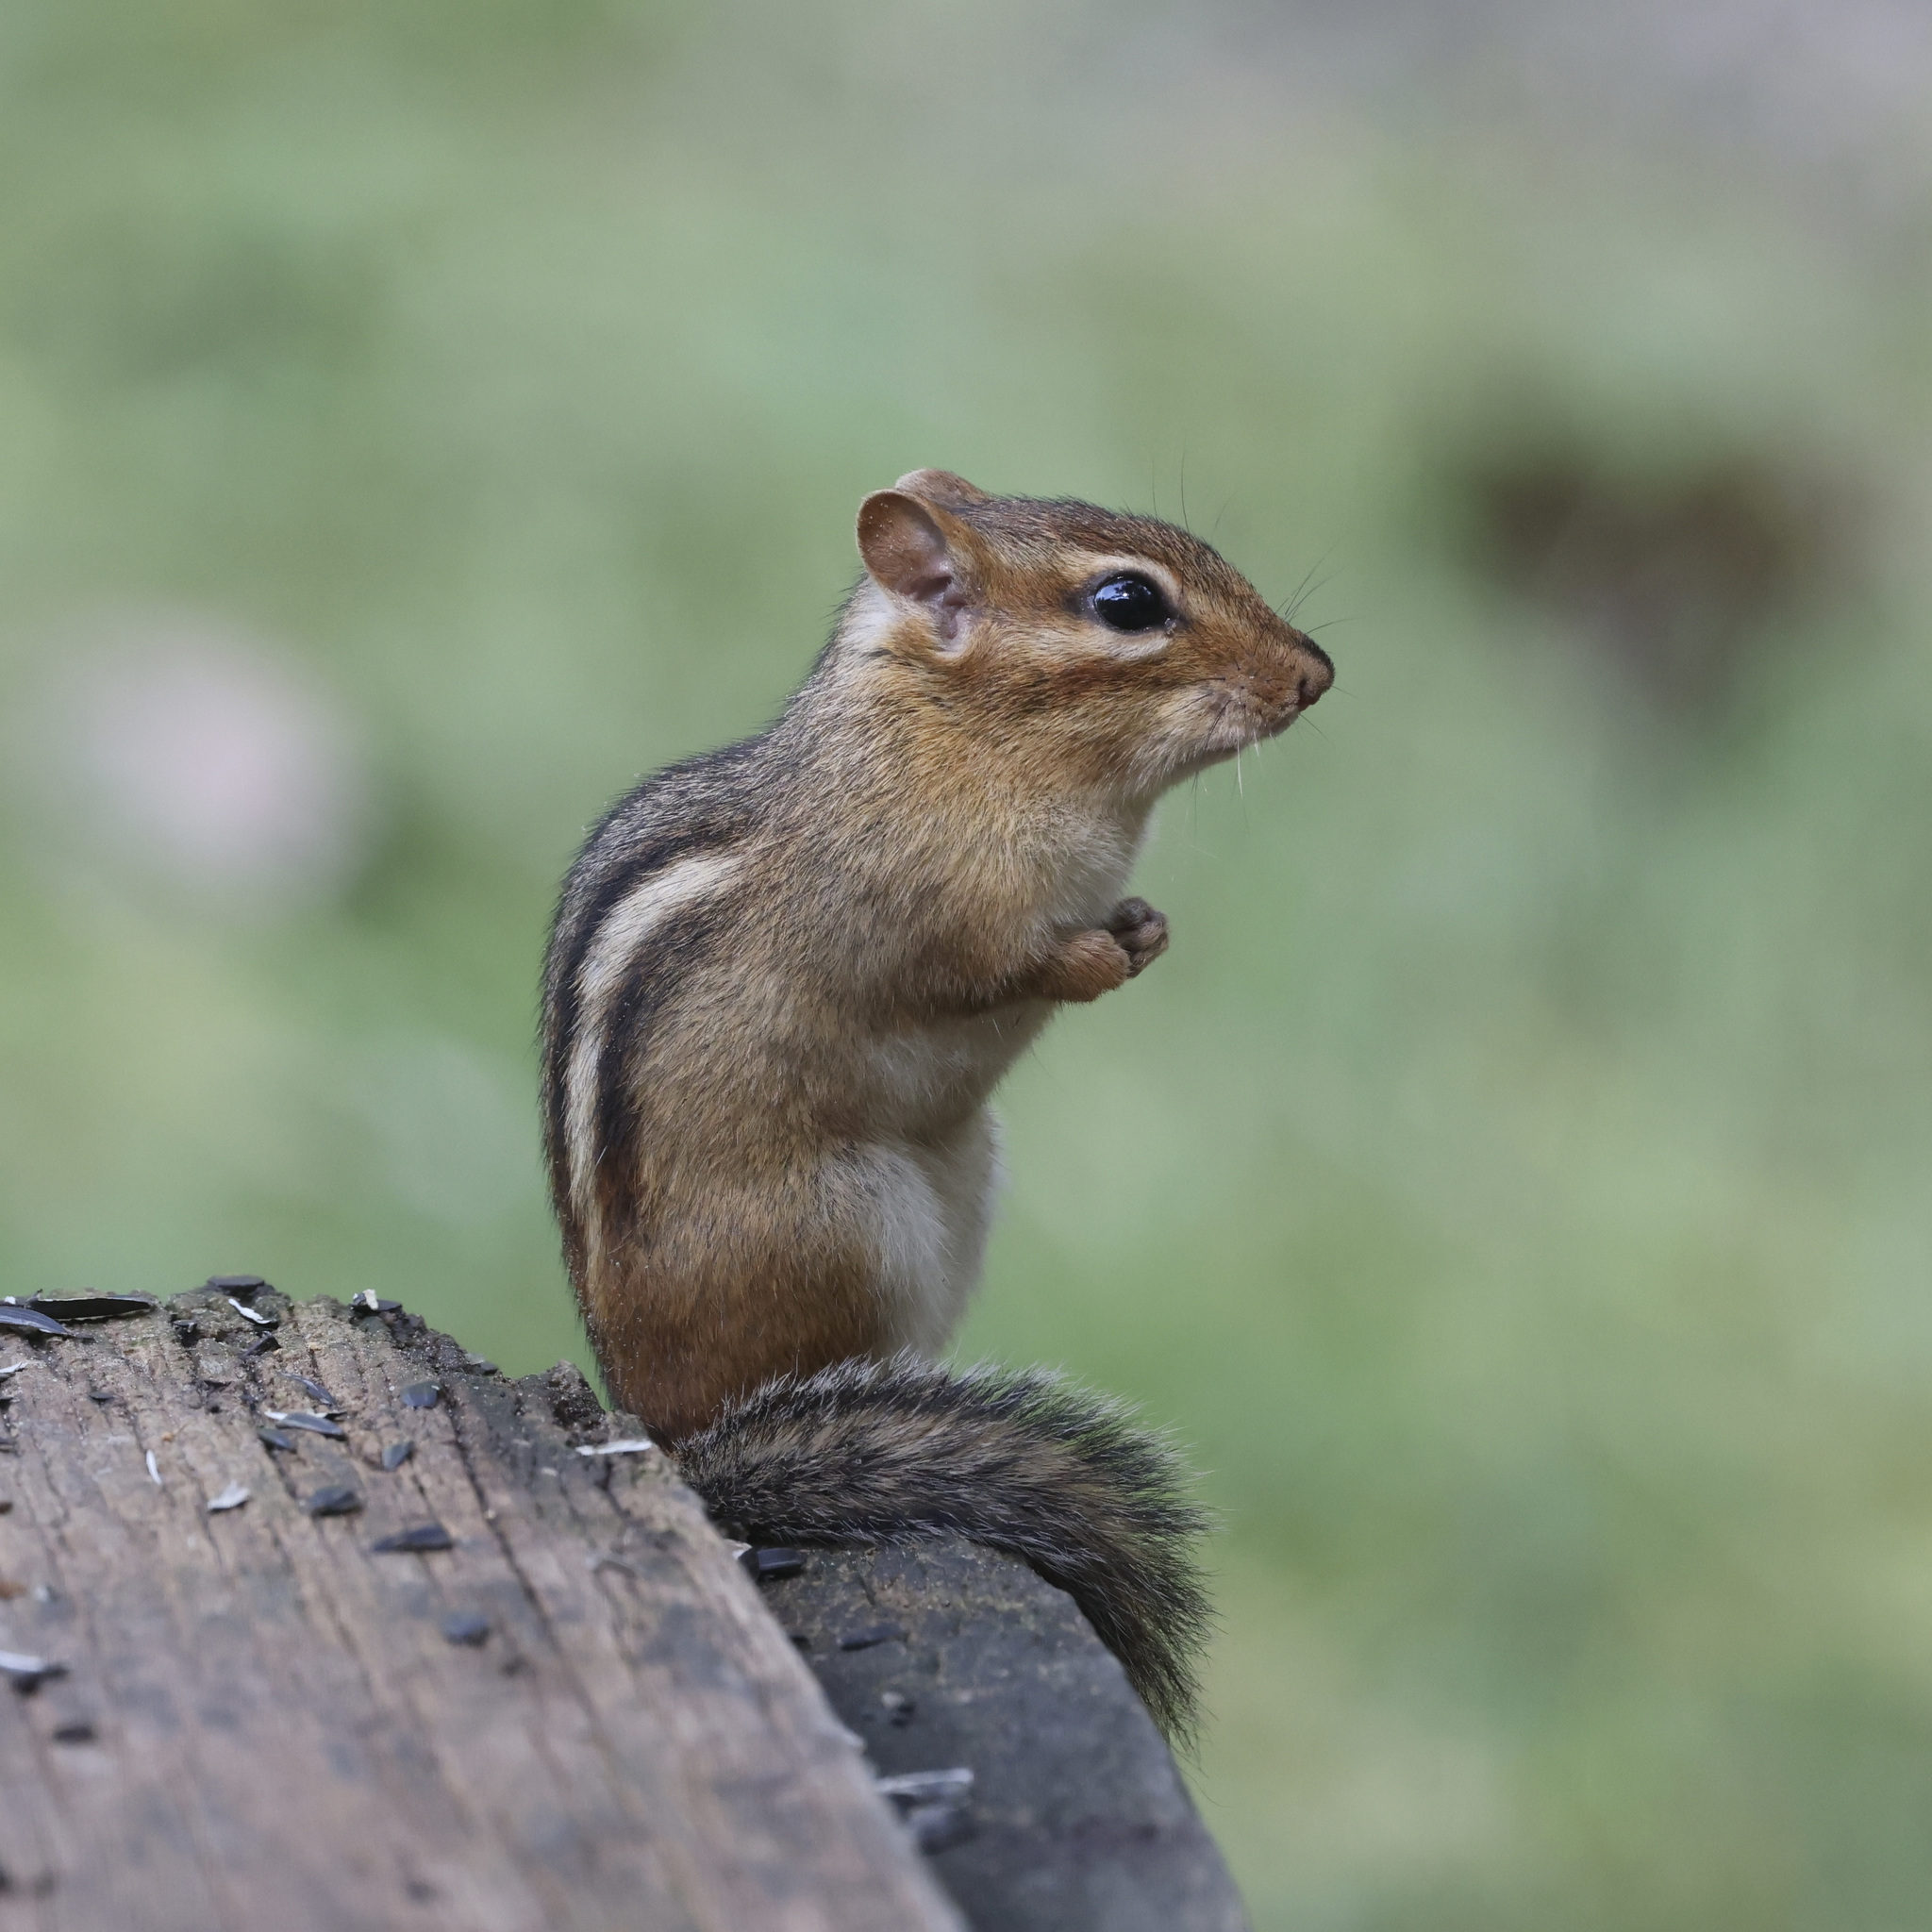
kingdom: Animalia
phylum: Chordata
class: Mammalia
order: Rodentia
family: Sciuridae
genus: Tamias
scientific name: Tamias striatus
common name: Eastern chipmunk
